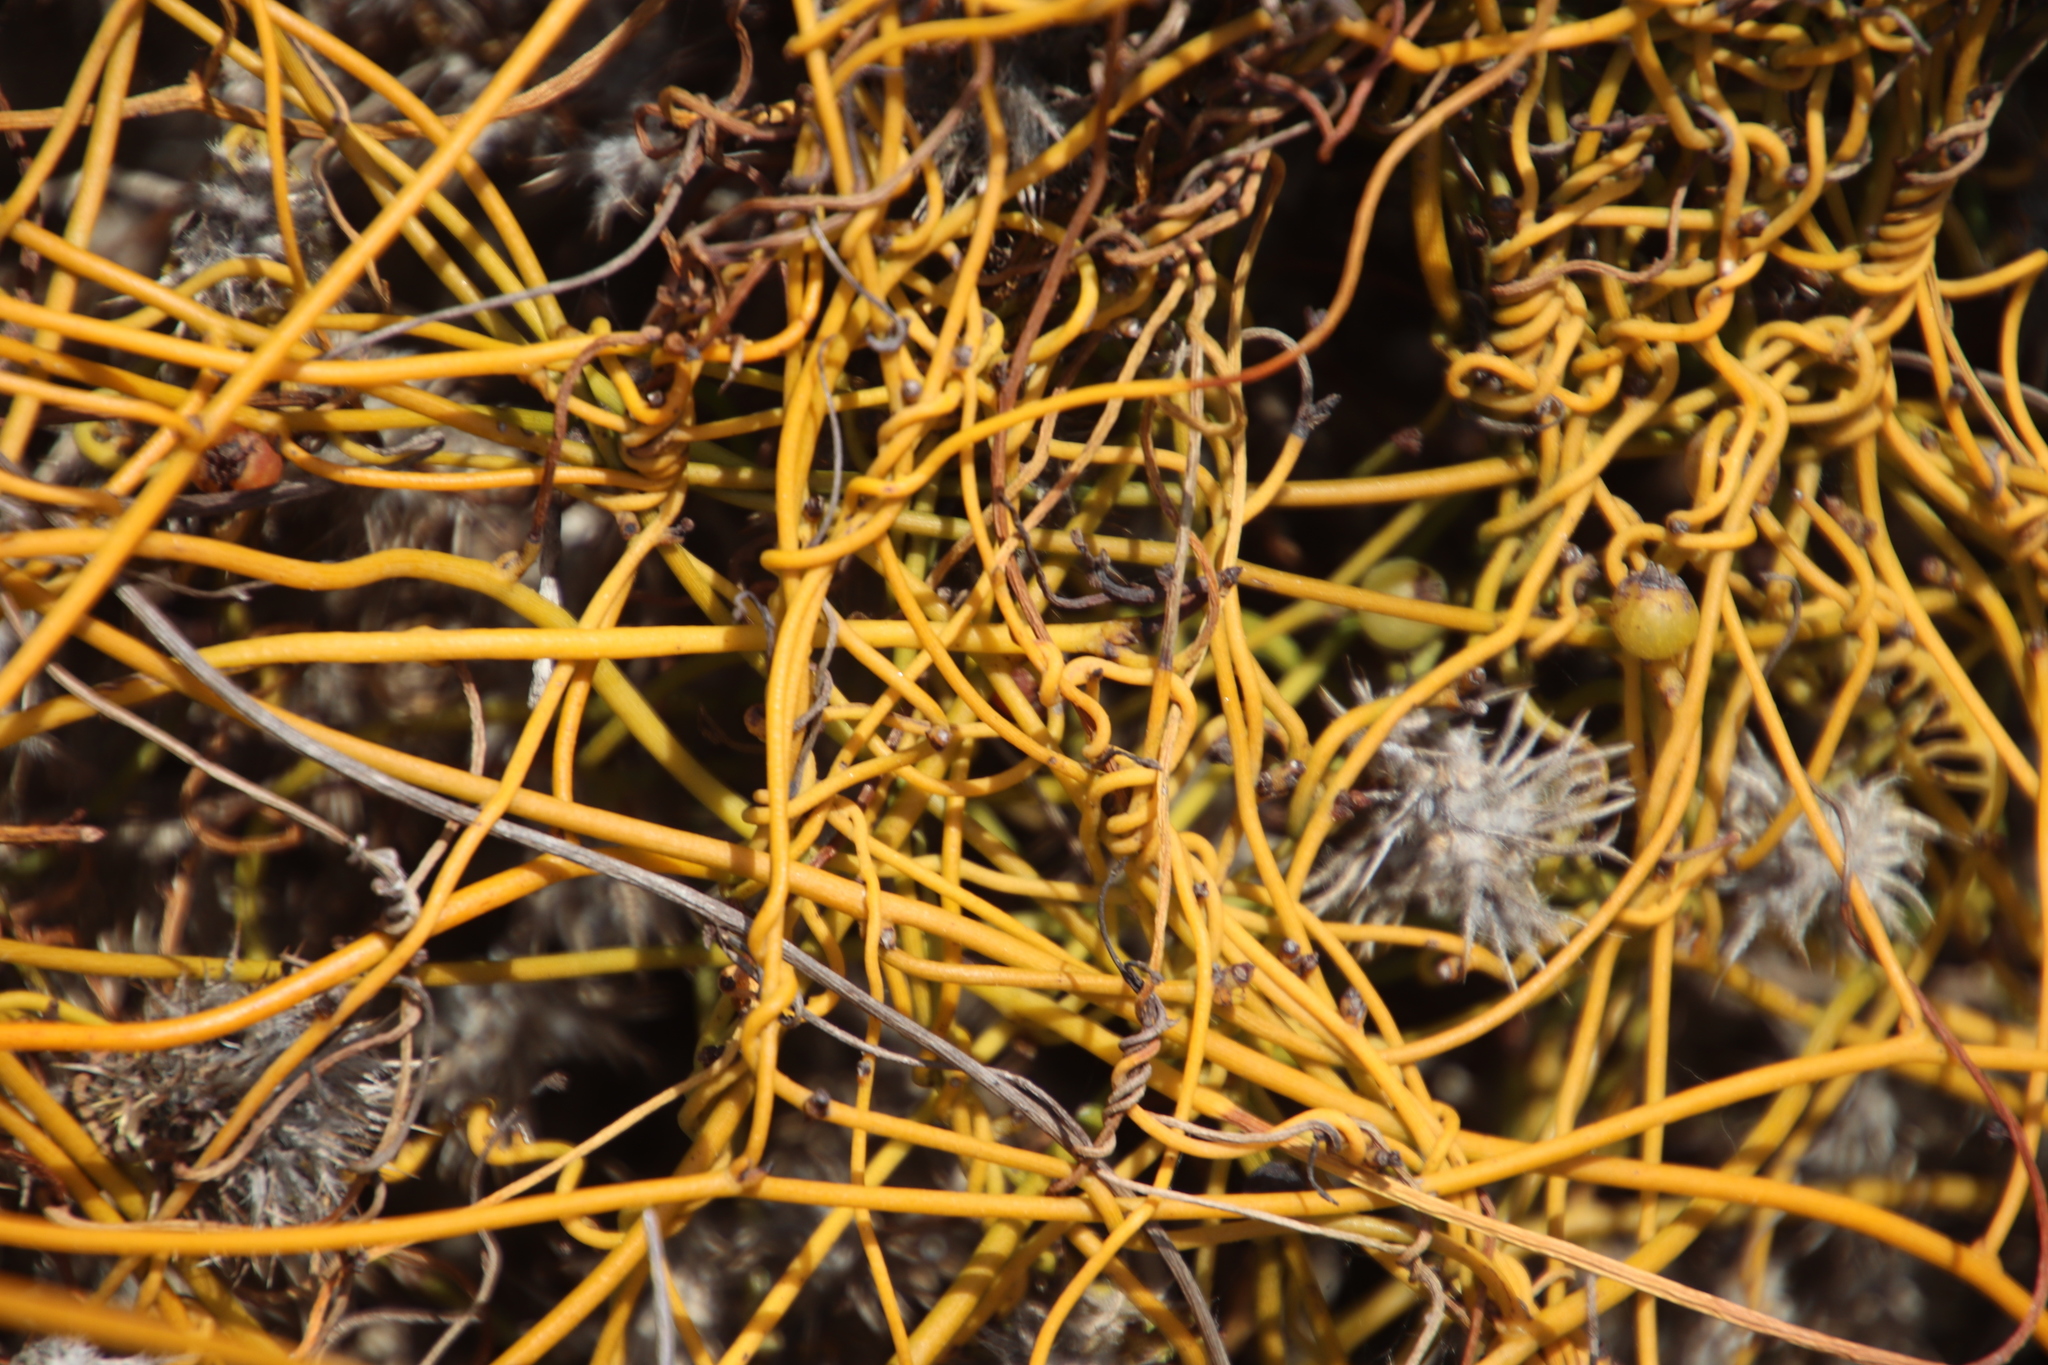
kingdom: Plantae
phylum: Tracheophyta
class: Magnoliopsida
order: Laurales
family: Lauraceae
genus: Cassytha
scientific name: Cassytha ciliolata
